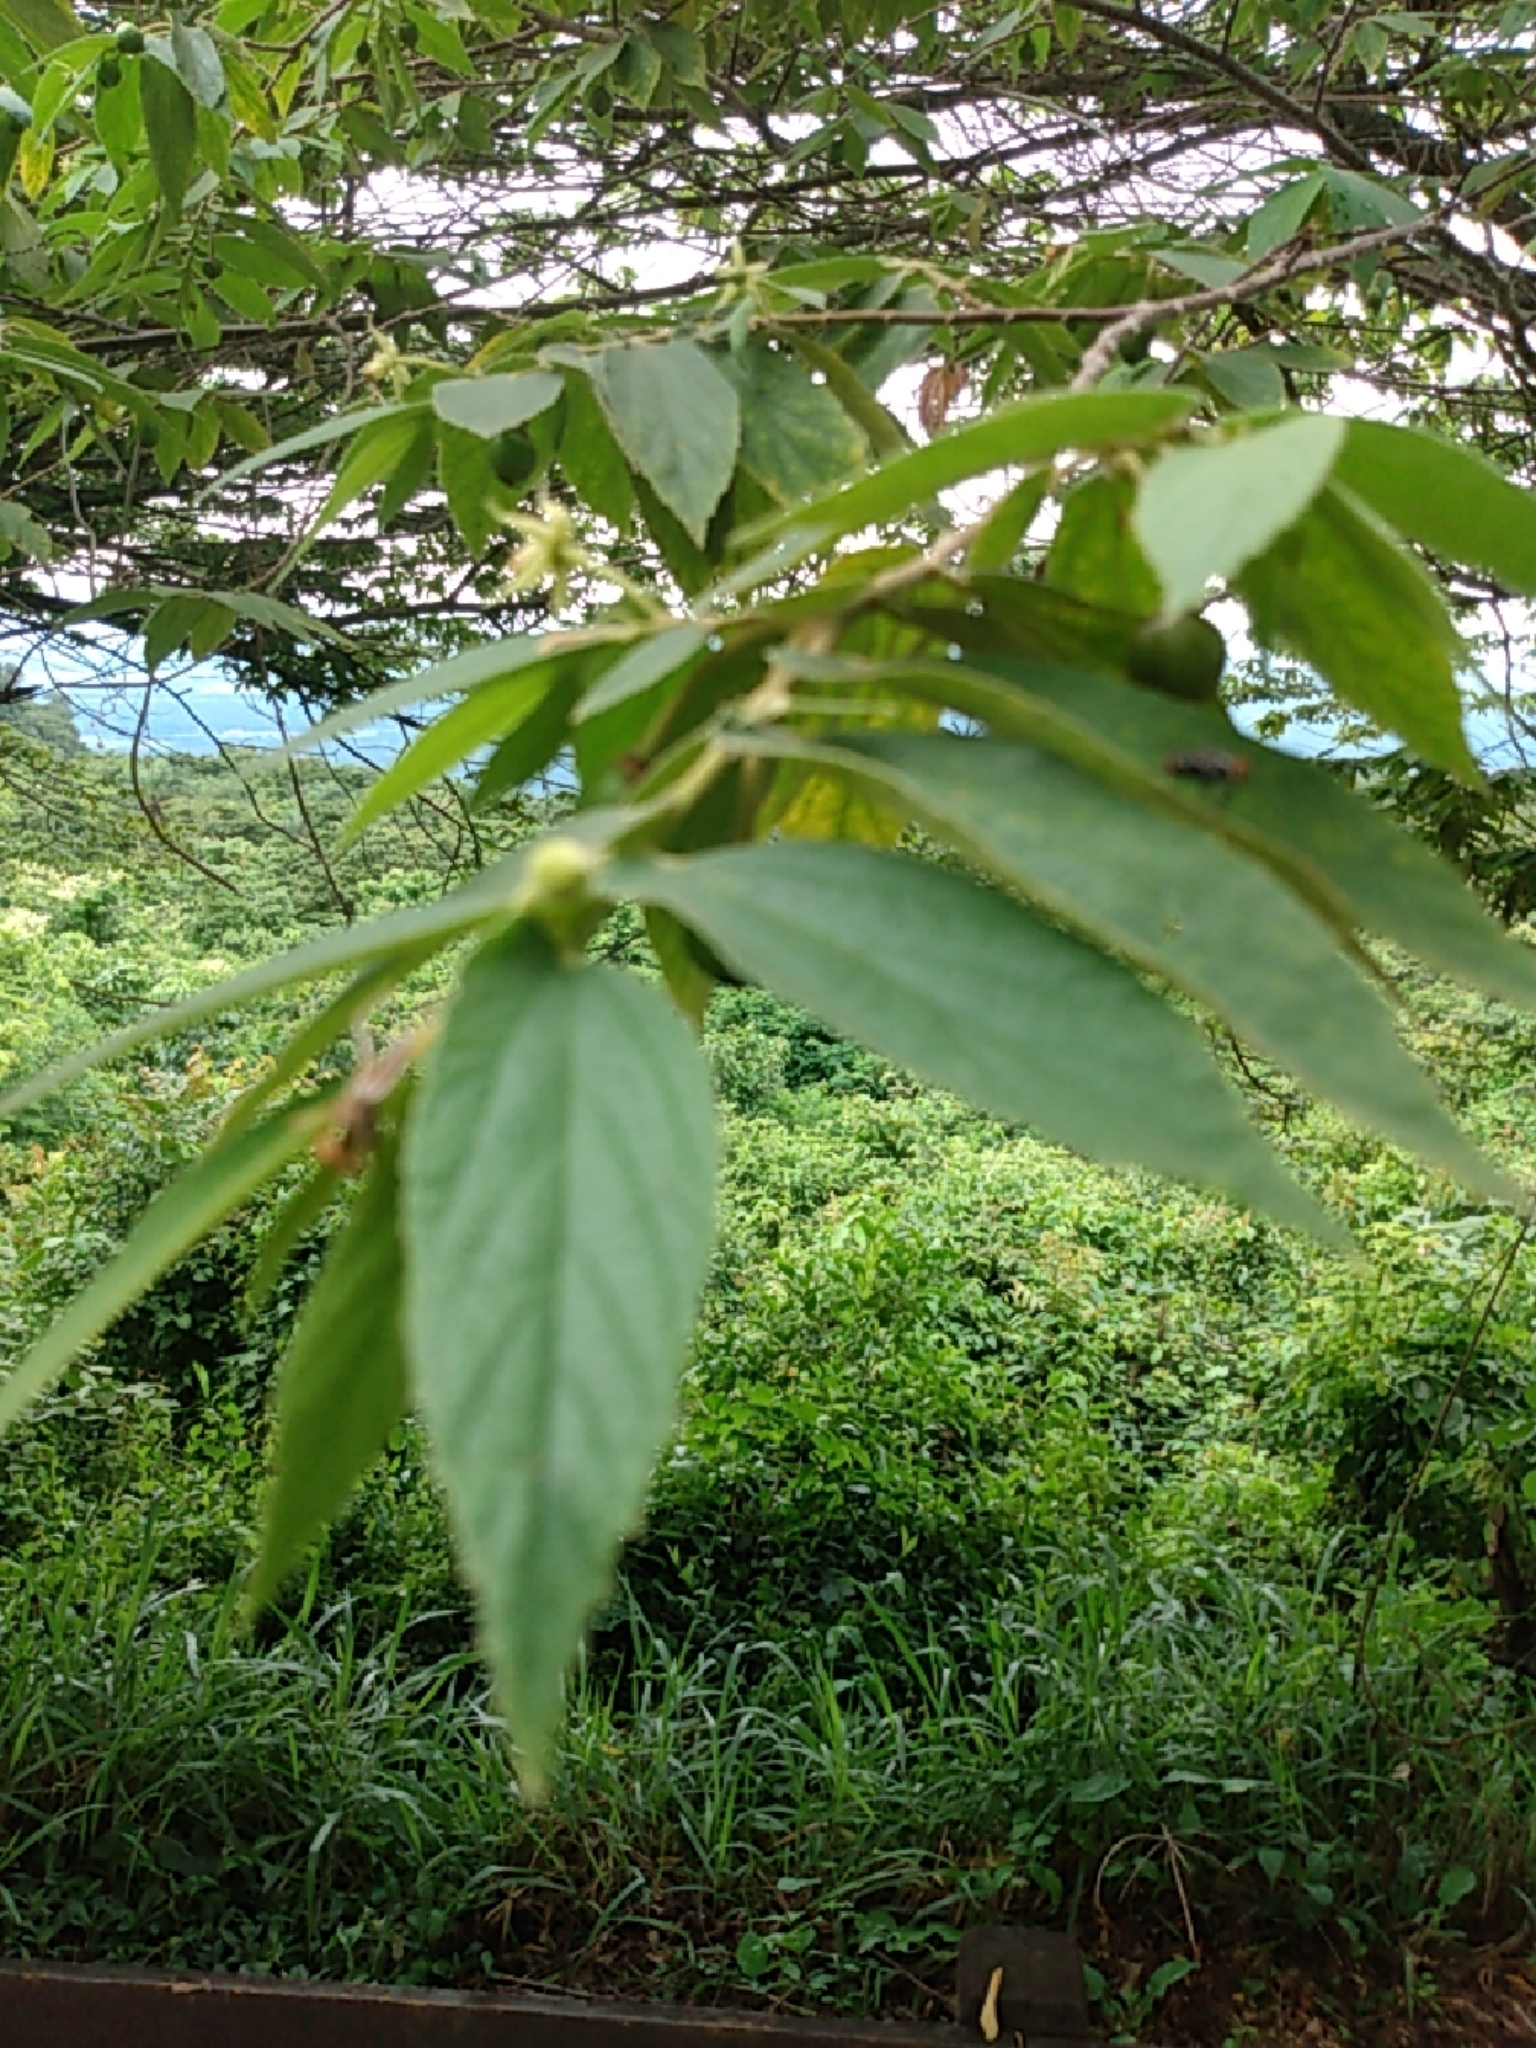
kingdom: Plantae
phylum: Tracheophyta
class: Magnoliopsida
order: Malvales
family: Muntingiaceae
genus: Muntingia
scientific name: Muntingia calabura
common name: Strawberrytree
